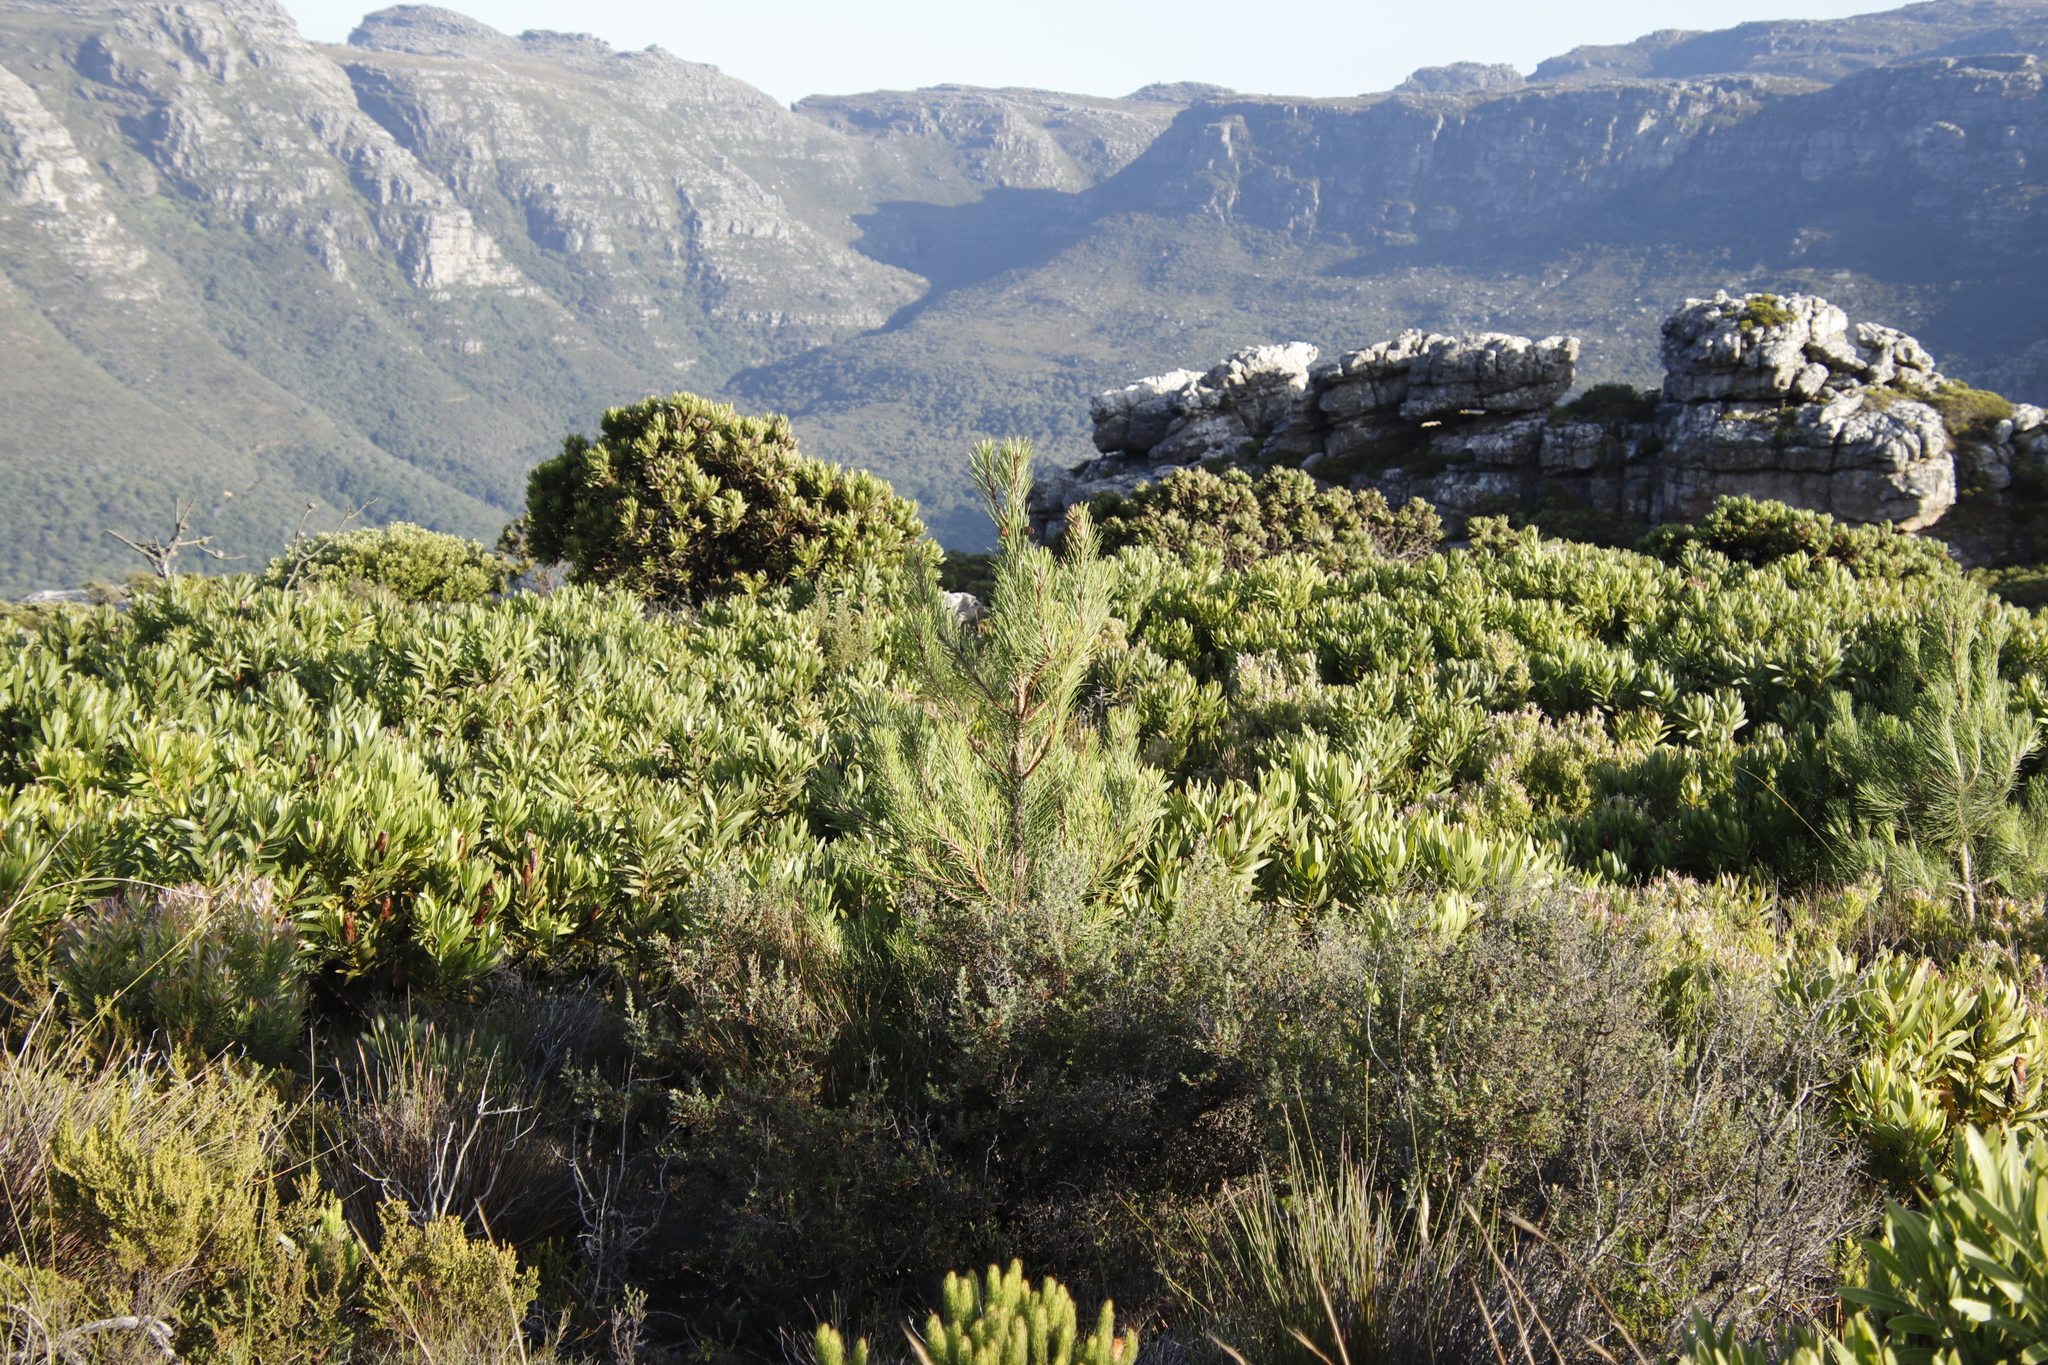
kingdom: Plantae
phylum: Tracheophyta
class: Pinopsida
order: Pinales
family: Pinaceae
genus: Pinus
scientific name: Pinus pinaster
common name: Maritime pine
